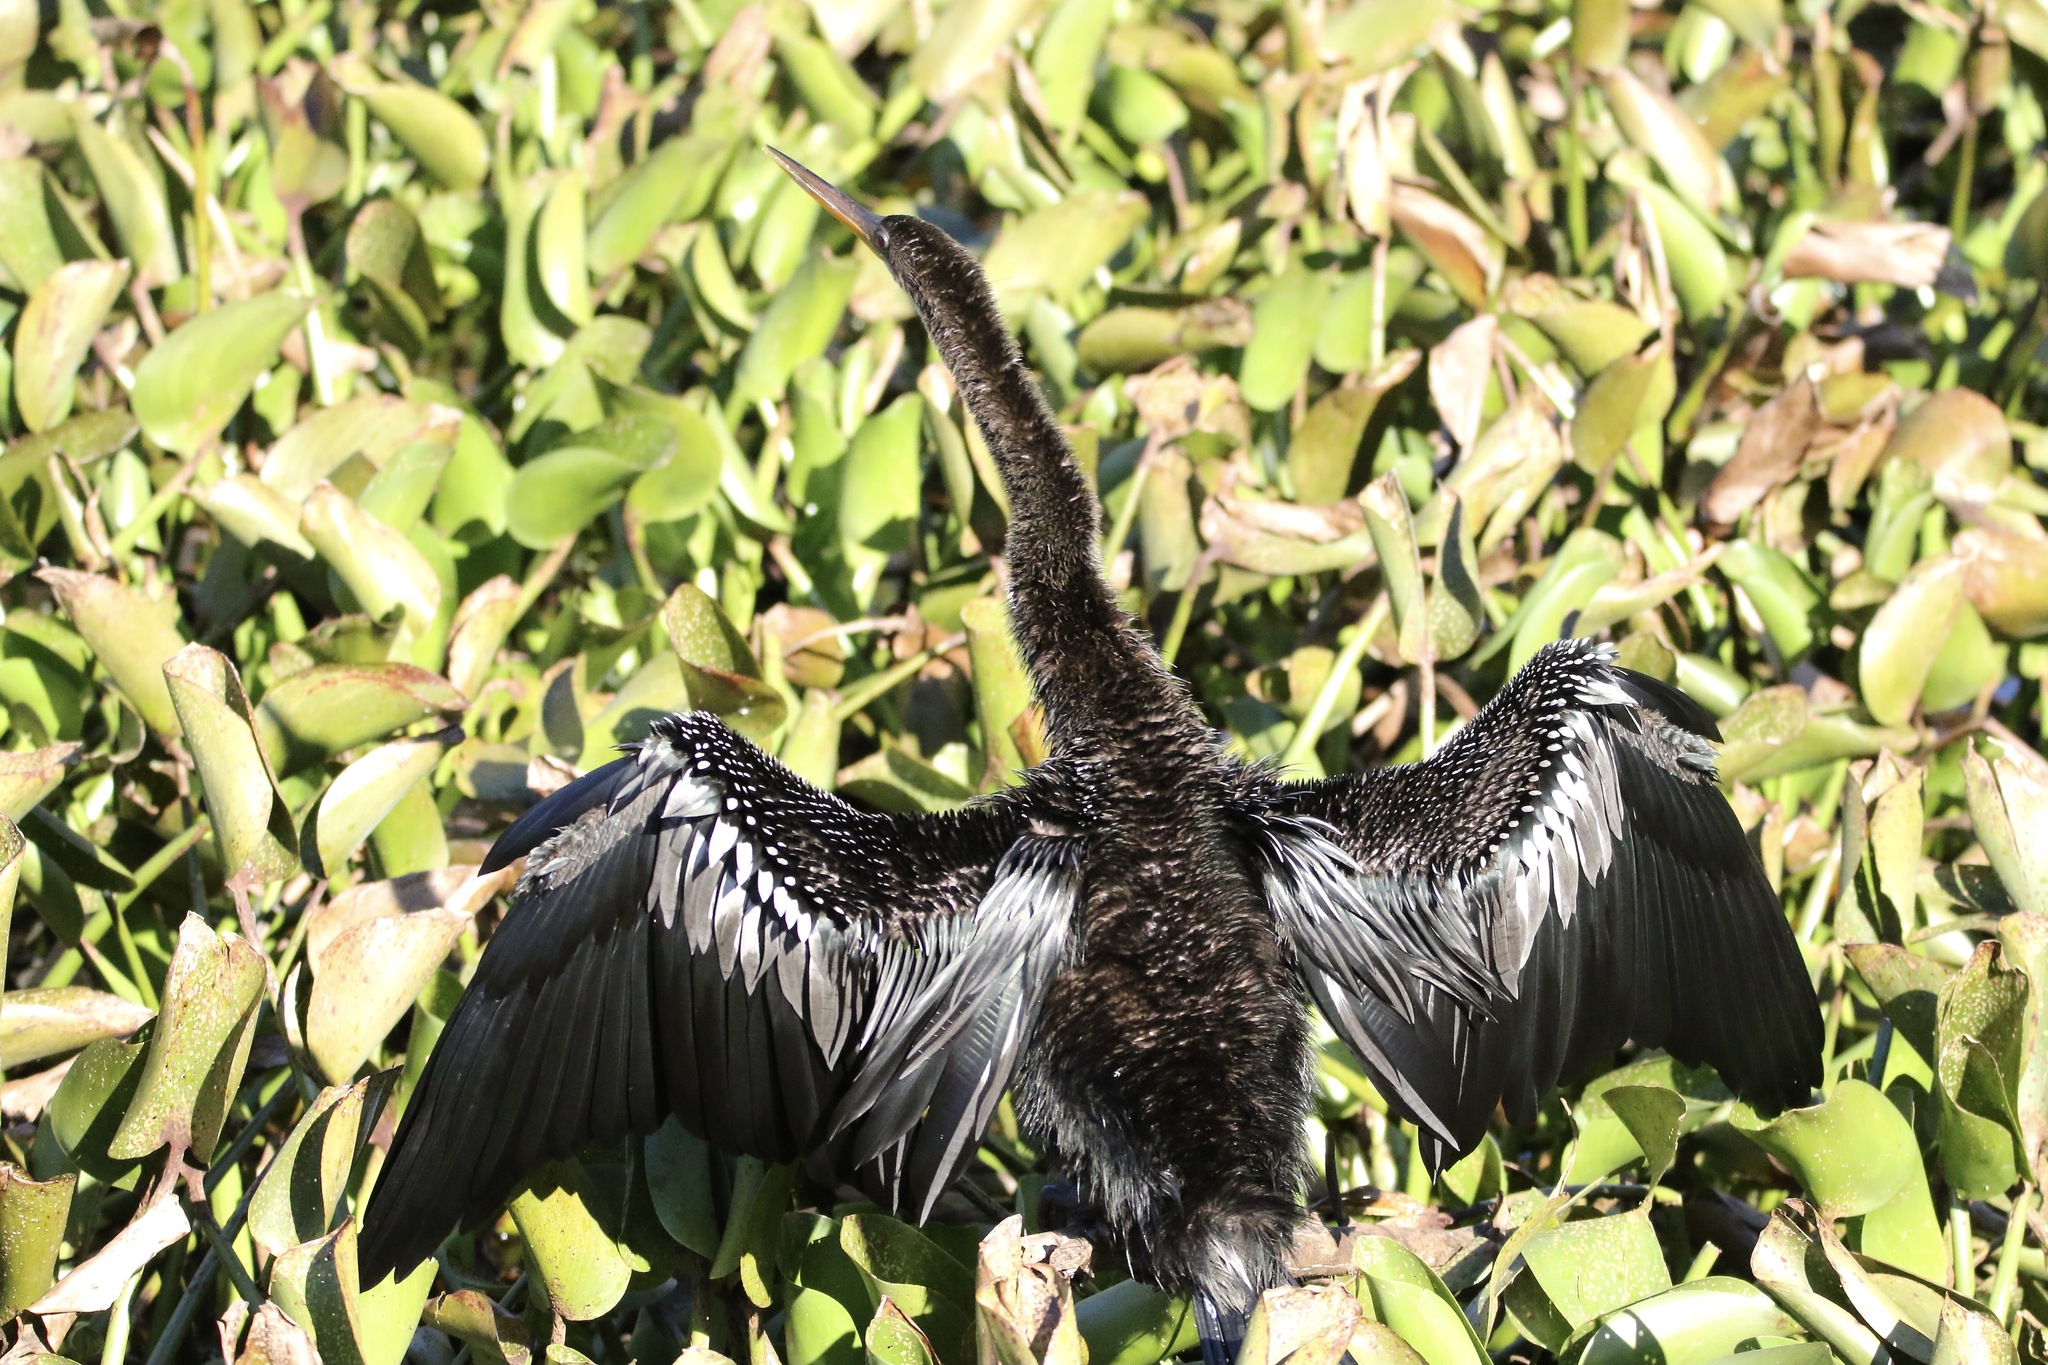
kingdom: Animalia
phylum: Chordata
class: Aves
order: Suliformes
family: Anhingidae
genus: Anhinga
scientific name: Anhinga anhinga
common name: Anhinga
